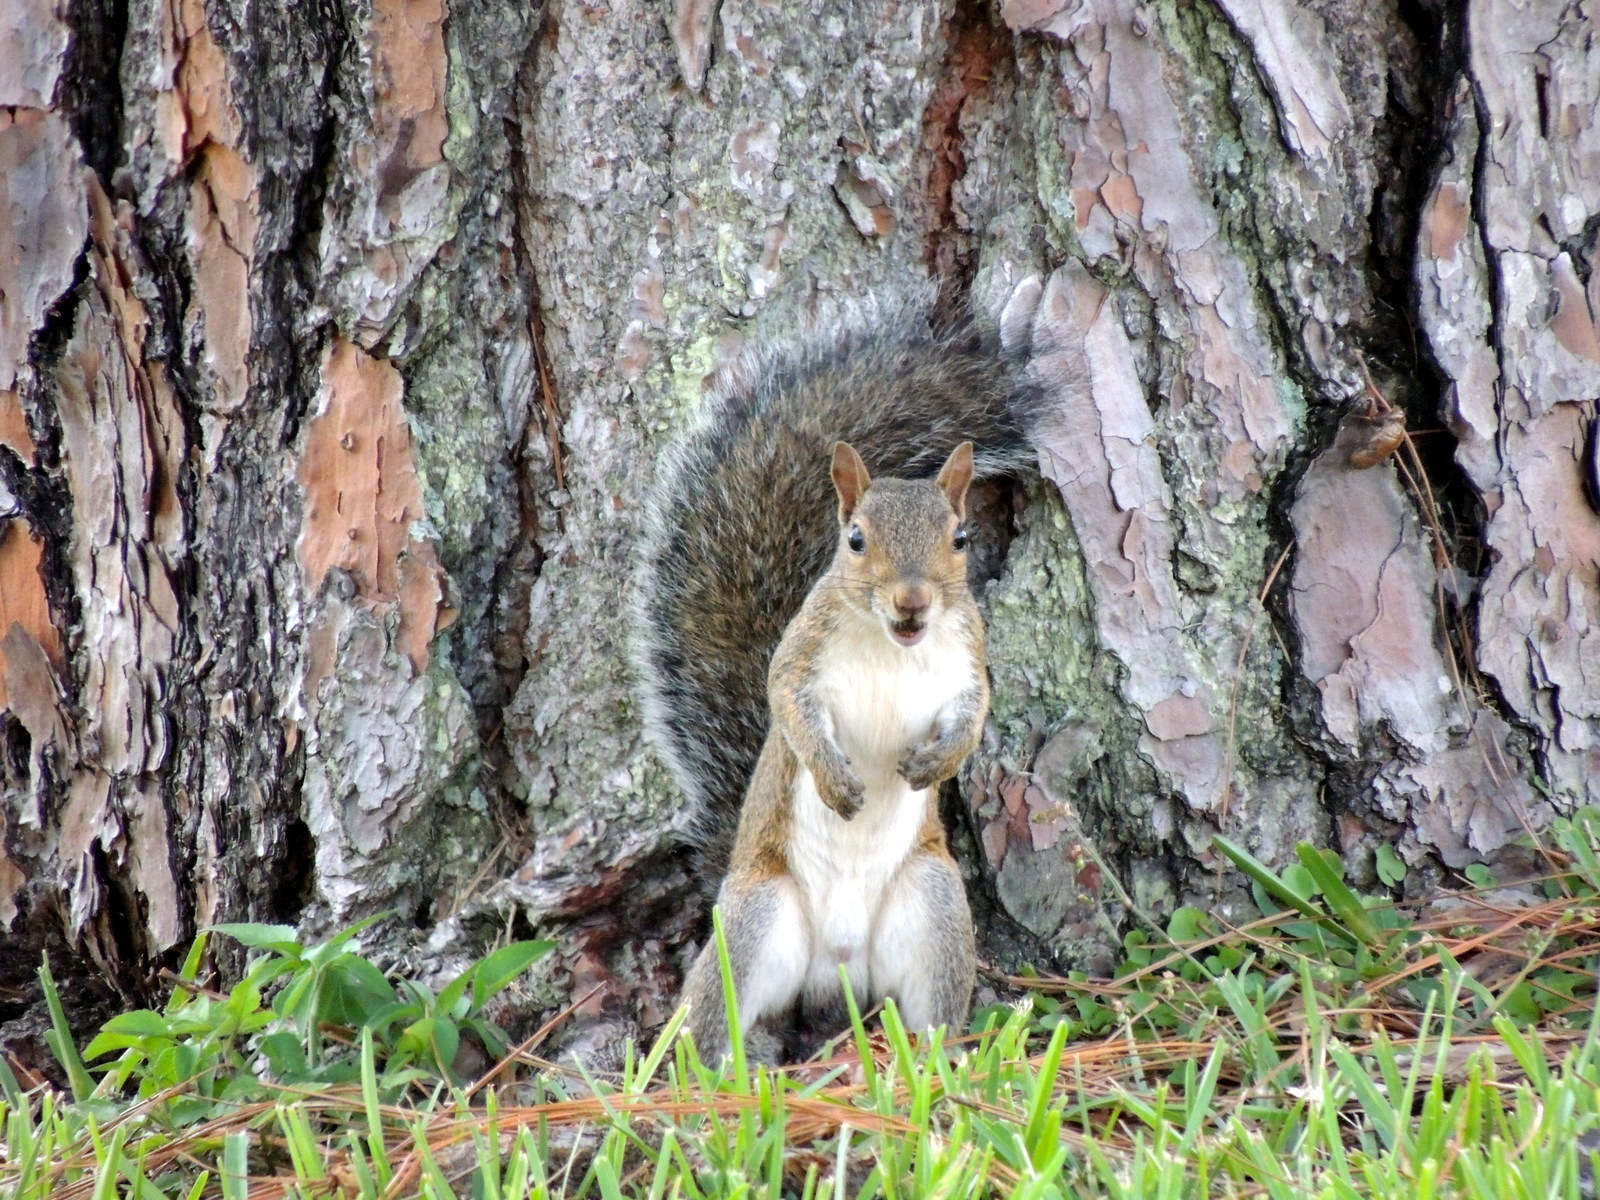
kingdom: Animalia
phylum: Chordata
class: Mammalia
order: Rodentia
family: Sciuridae
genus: Sciurus
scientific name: Sciurus carolinensis
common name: Eastern gray squirrel
